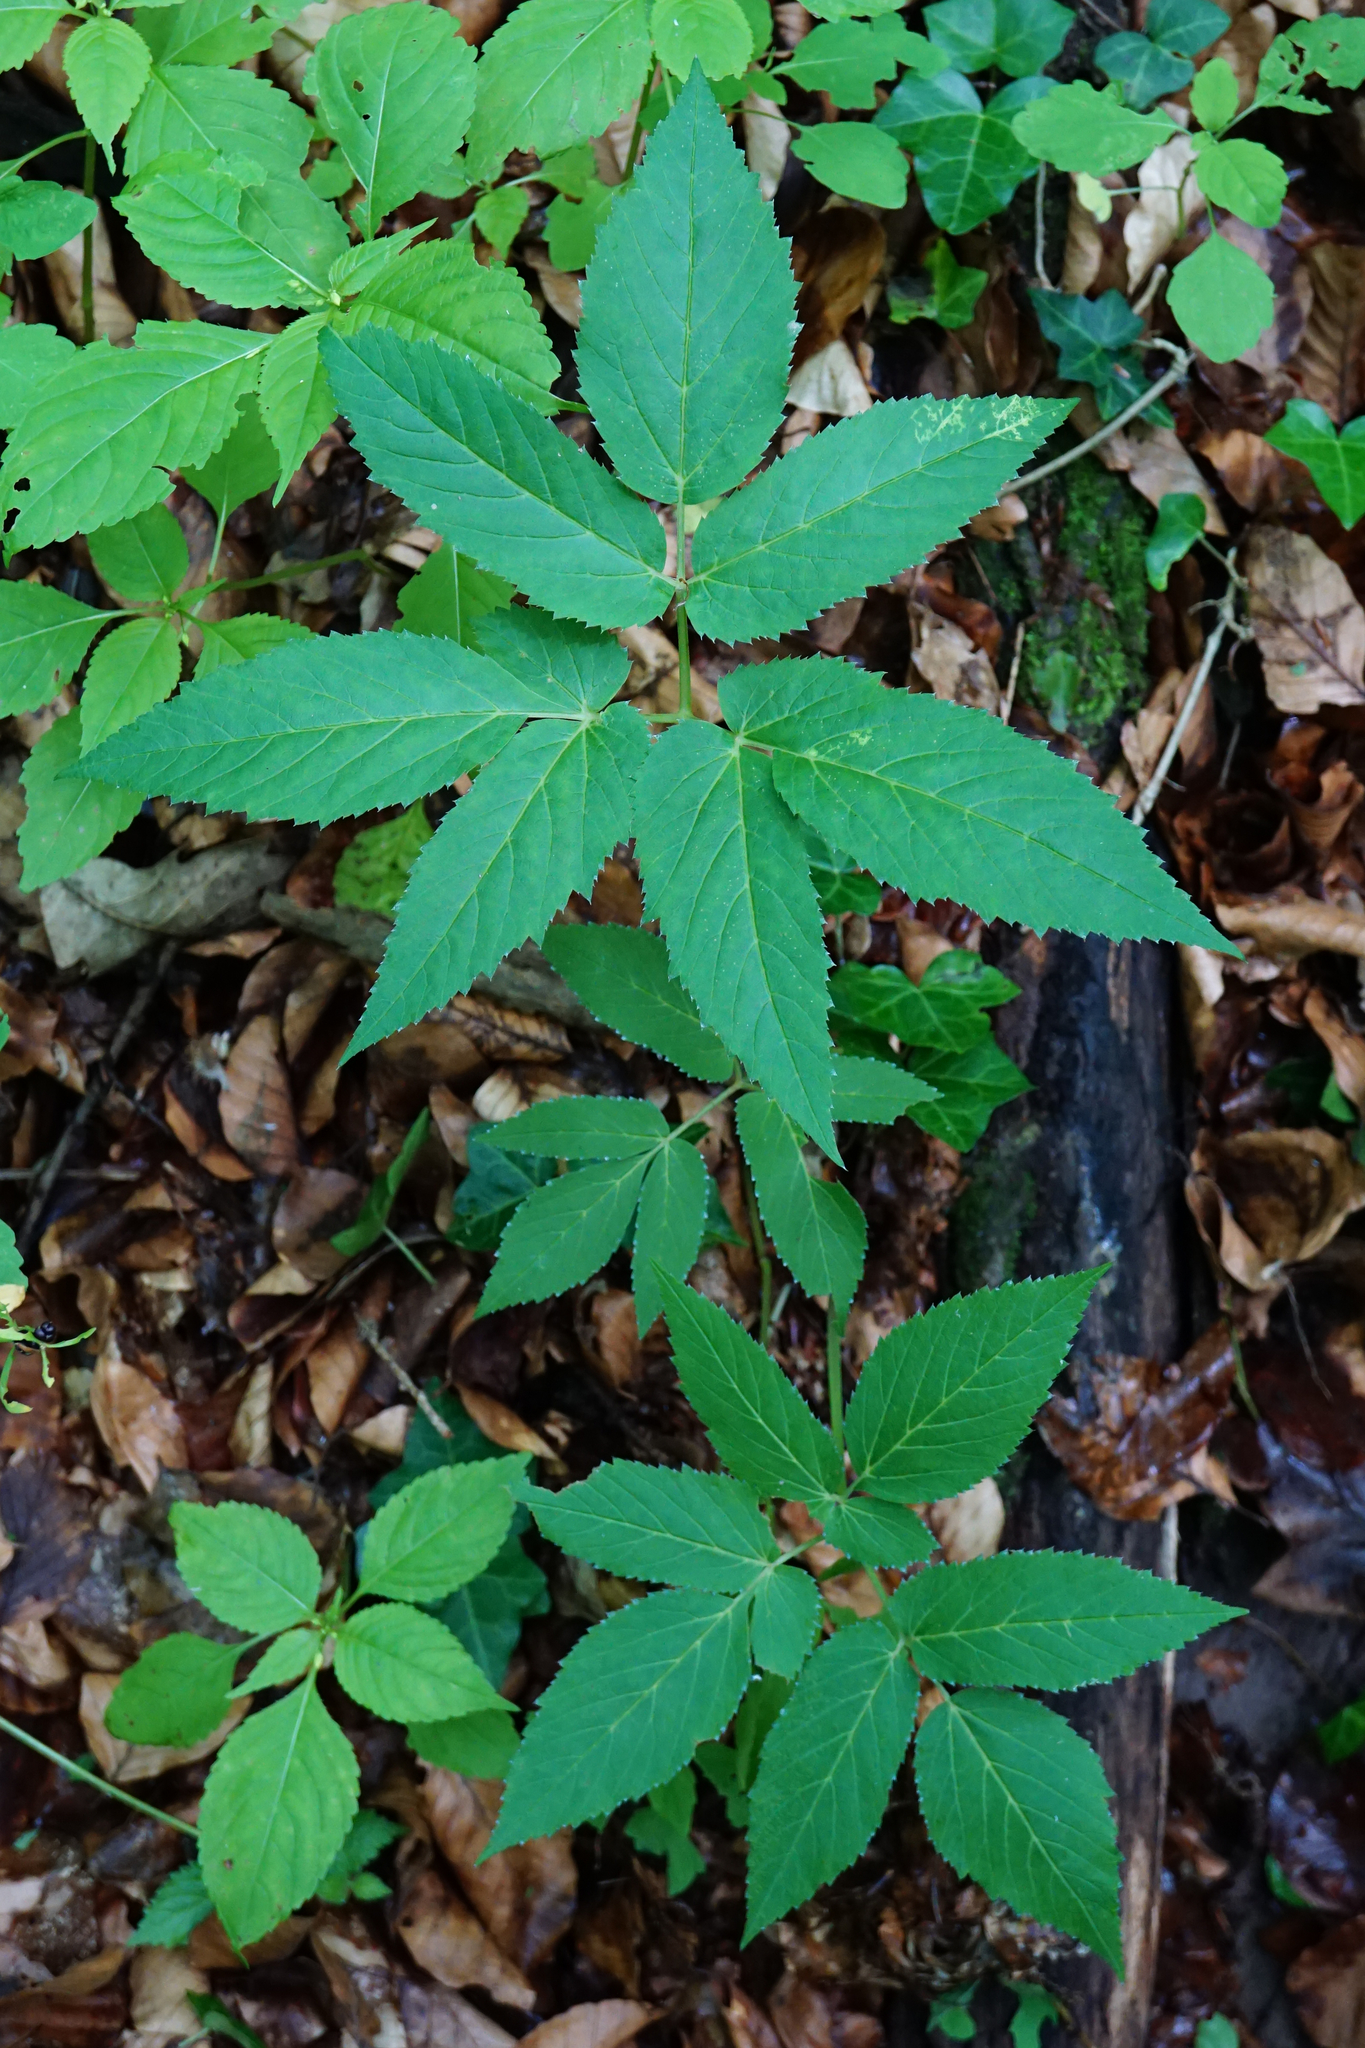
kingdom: Plantae
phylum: Tracheophyta
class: Magnoliopsida
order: Apiales
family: Apiaceae
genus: Aegopodium
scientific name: Aegopodium podagraria
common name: Ground-elder
